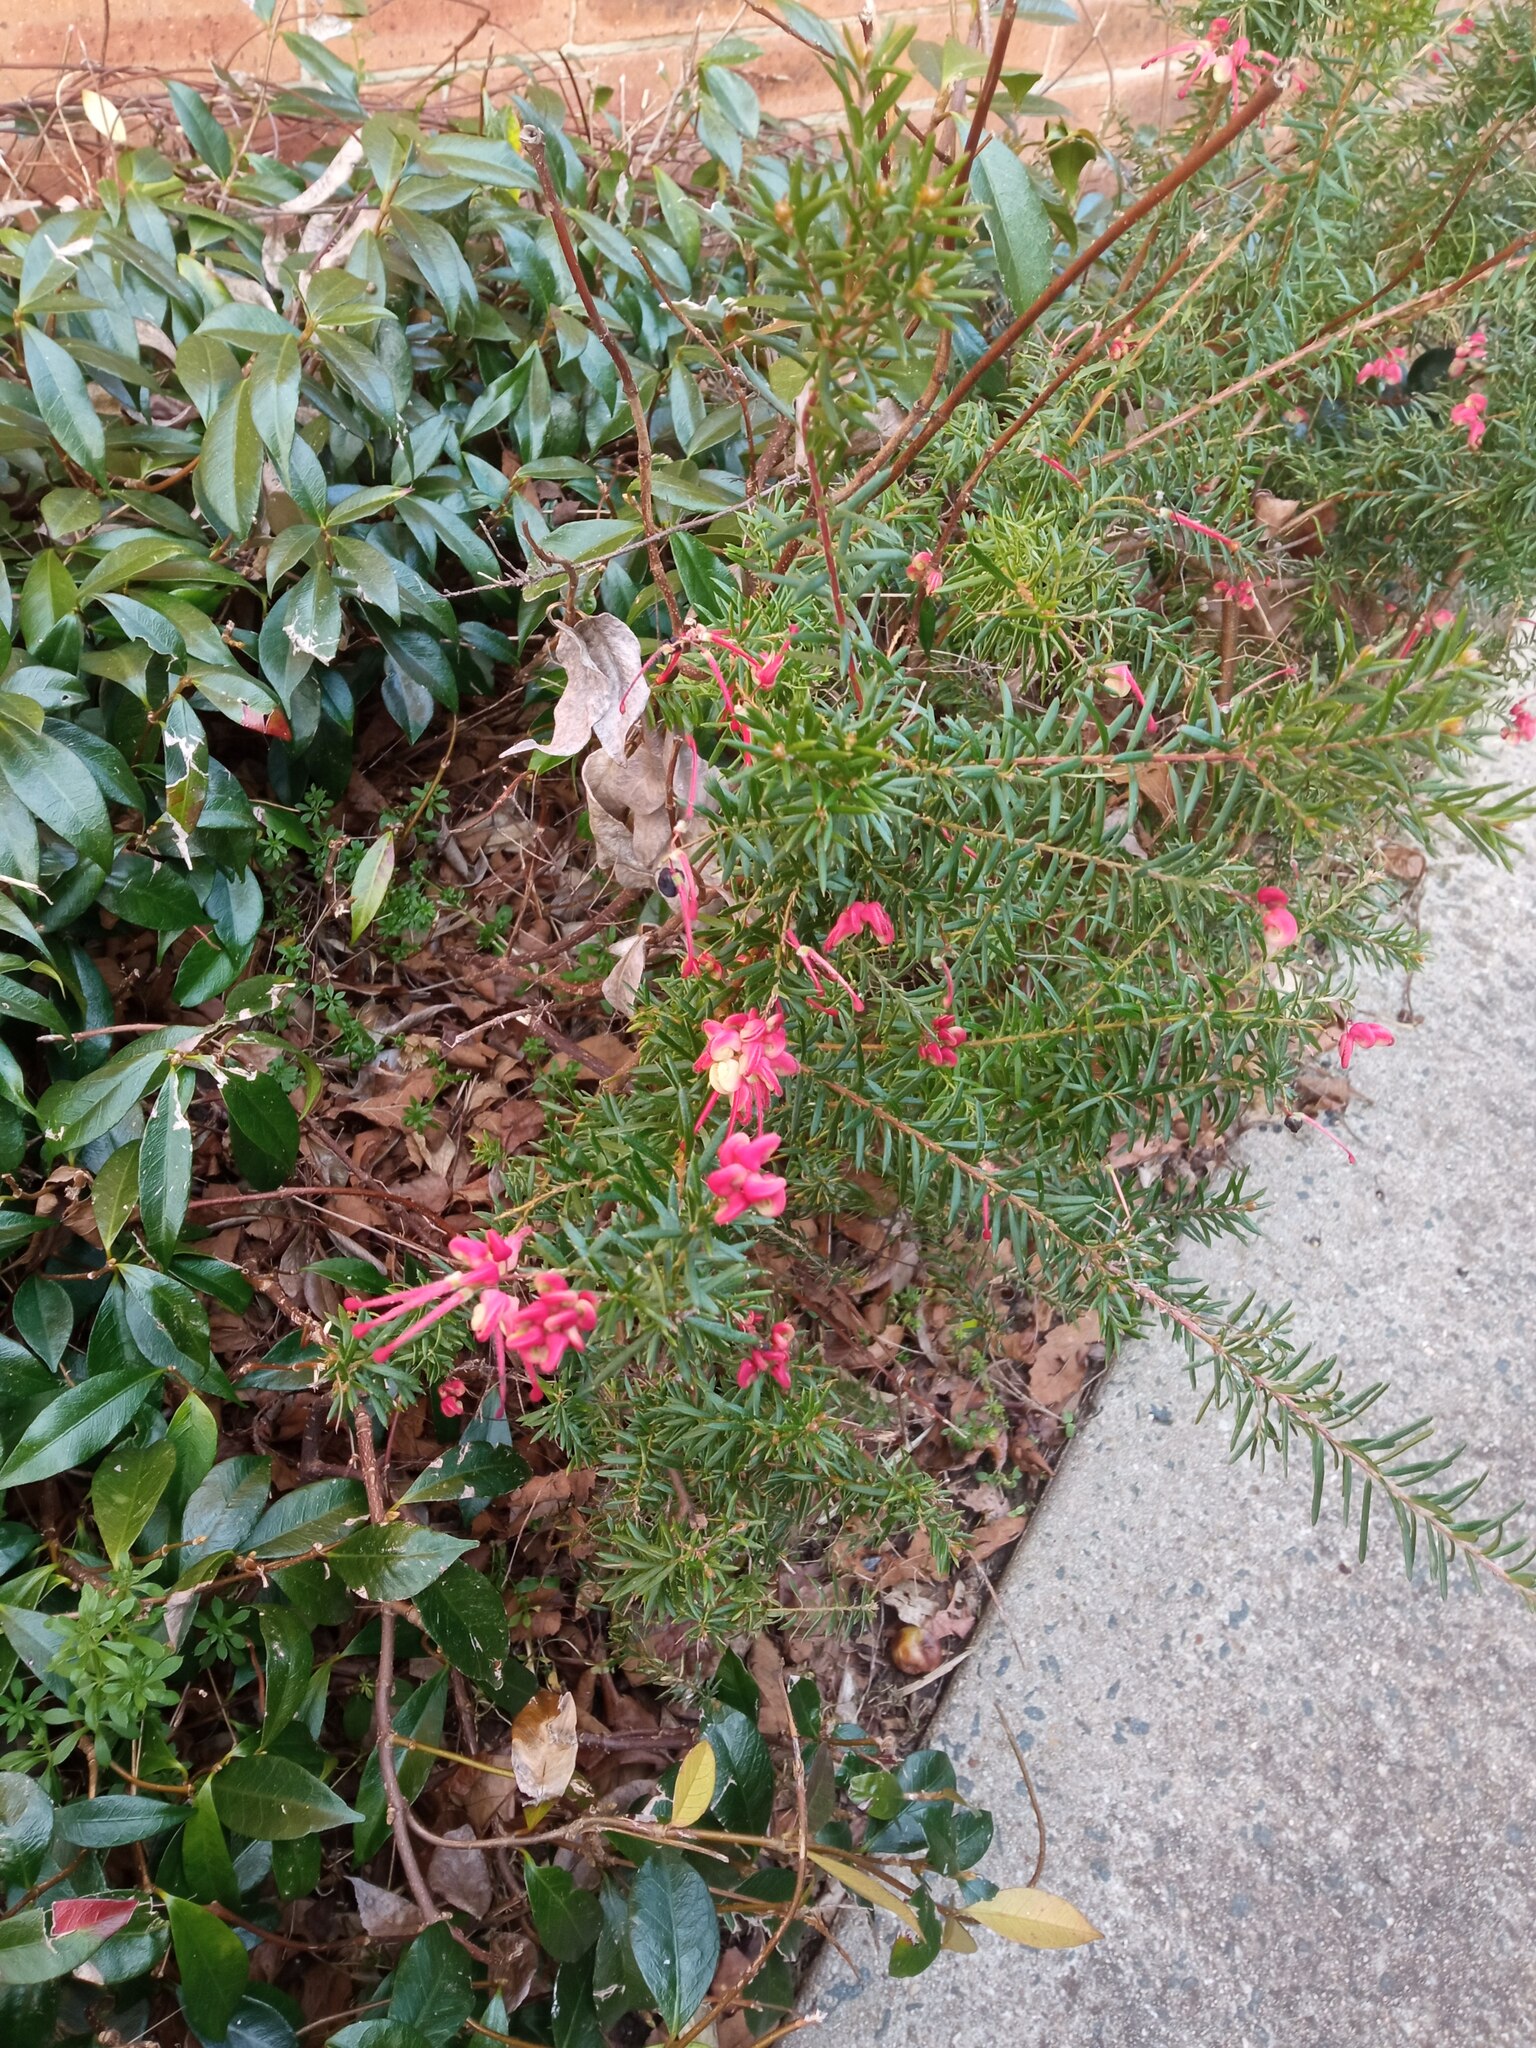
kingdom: Plantae
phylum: Tracheophyta
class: Magnoliopsida
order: Proteales
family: Proteaceae
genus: Grevillea
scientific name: Grevillea
